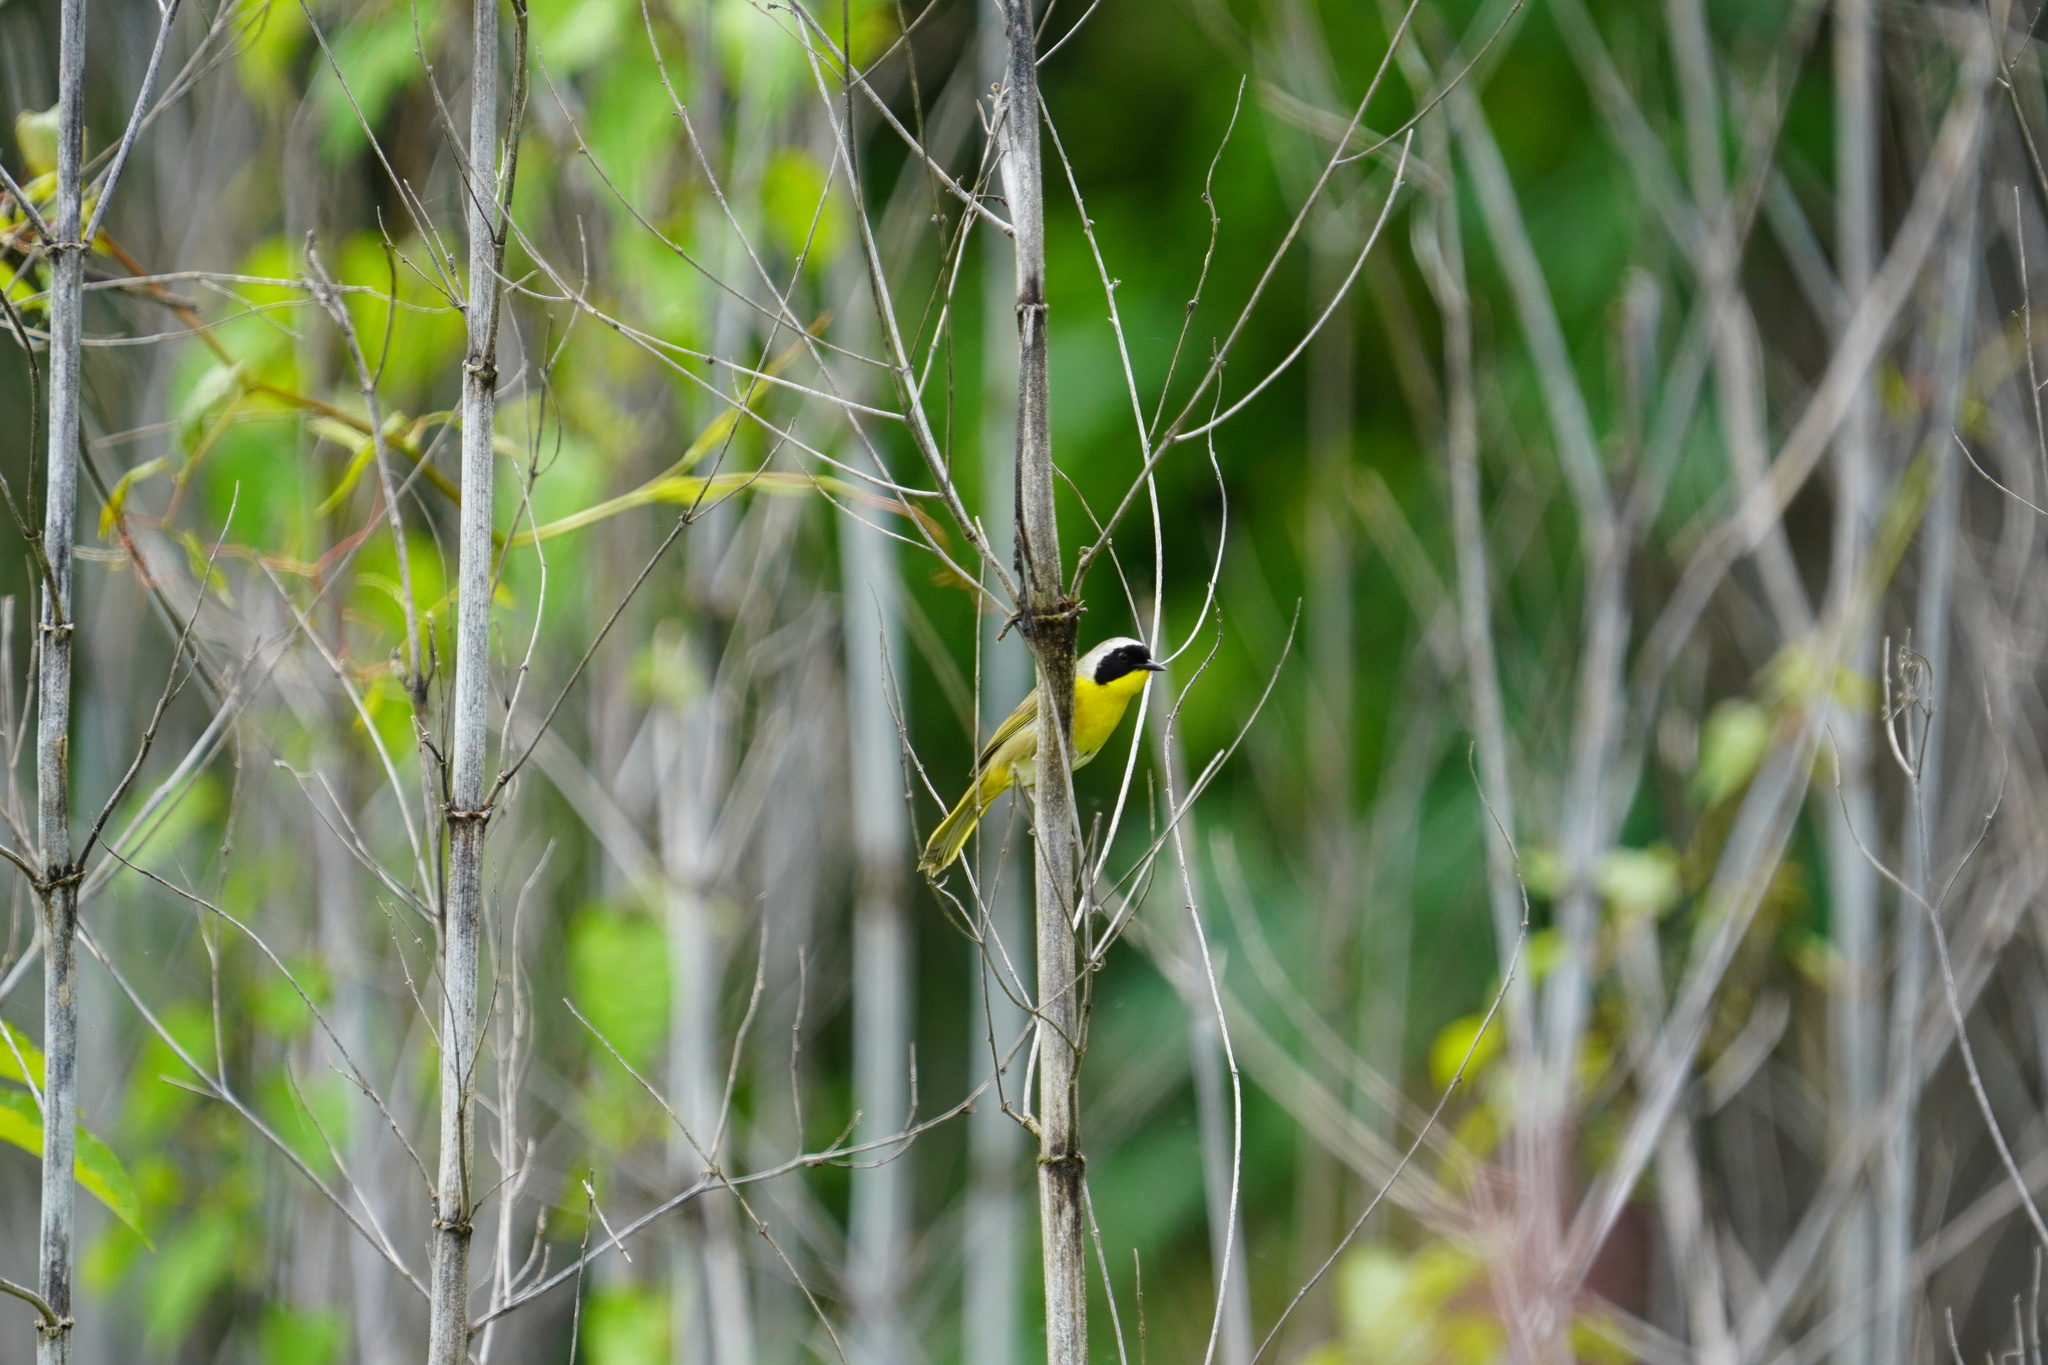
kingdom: Animalia
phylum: Chordata
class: Aves
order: Passeriformes
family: Parulidae
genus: Geothlypis
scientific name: Geothlypis trichas
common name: Common yellowthroat
